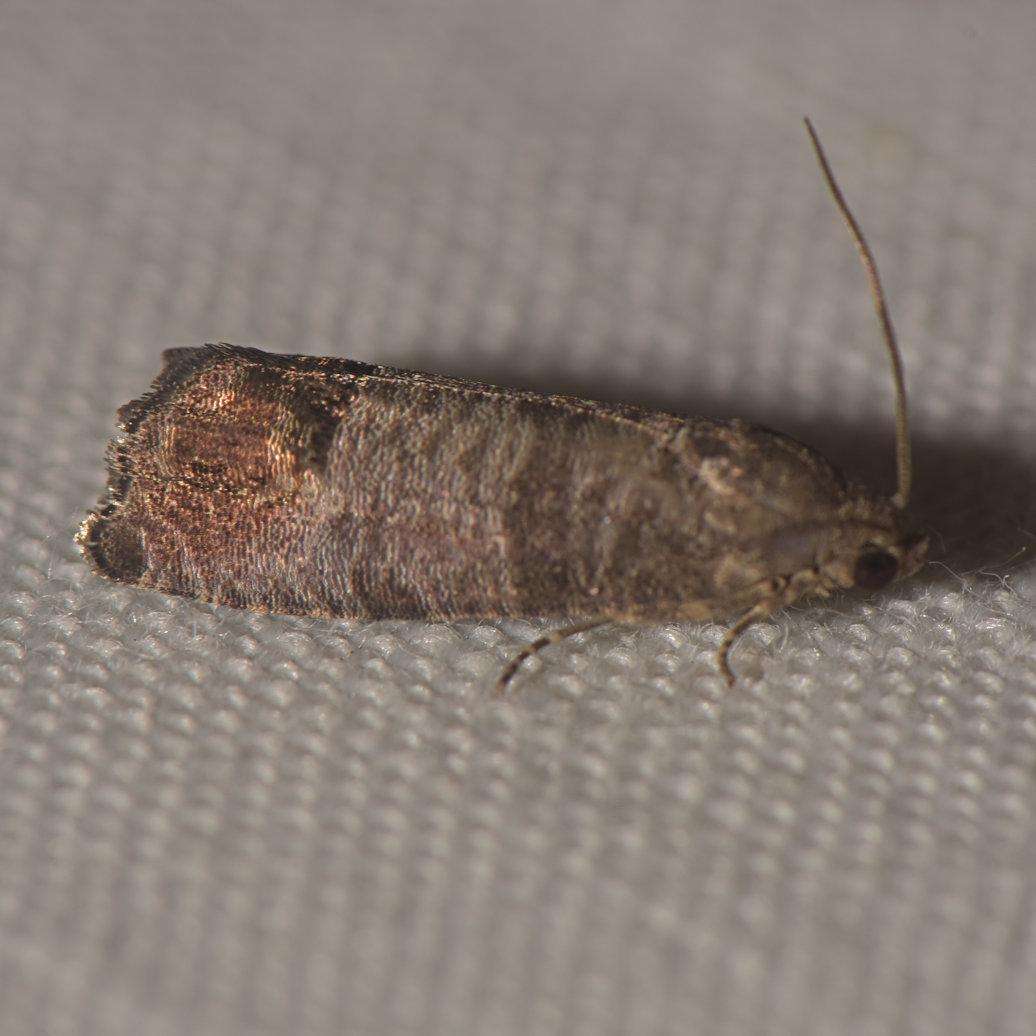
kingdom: Animalia
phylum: Arthropoda
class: Insecta
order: Lepidoptera
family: Tortricidae
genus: Cydia
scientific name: Cydia pomonella
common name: Codling moth
